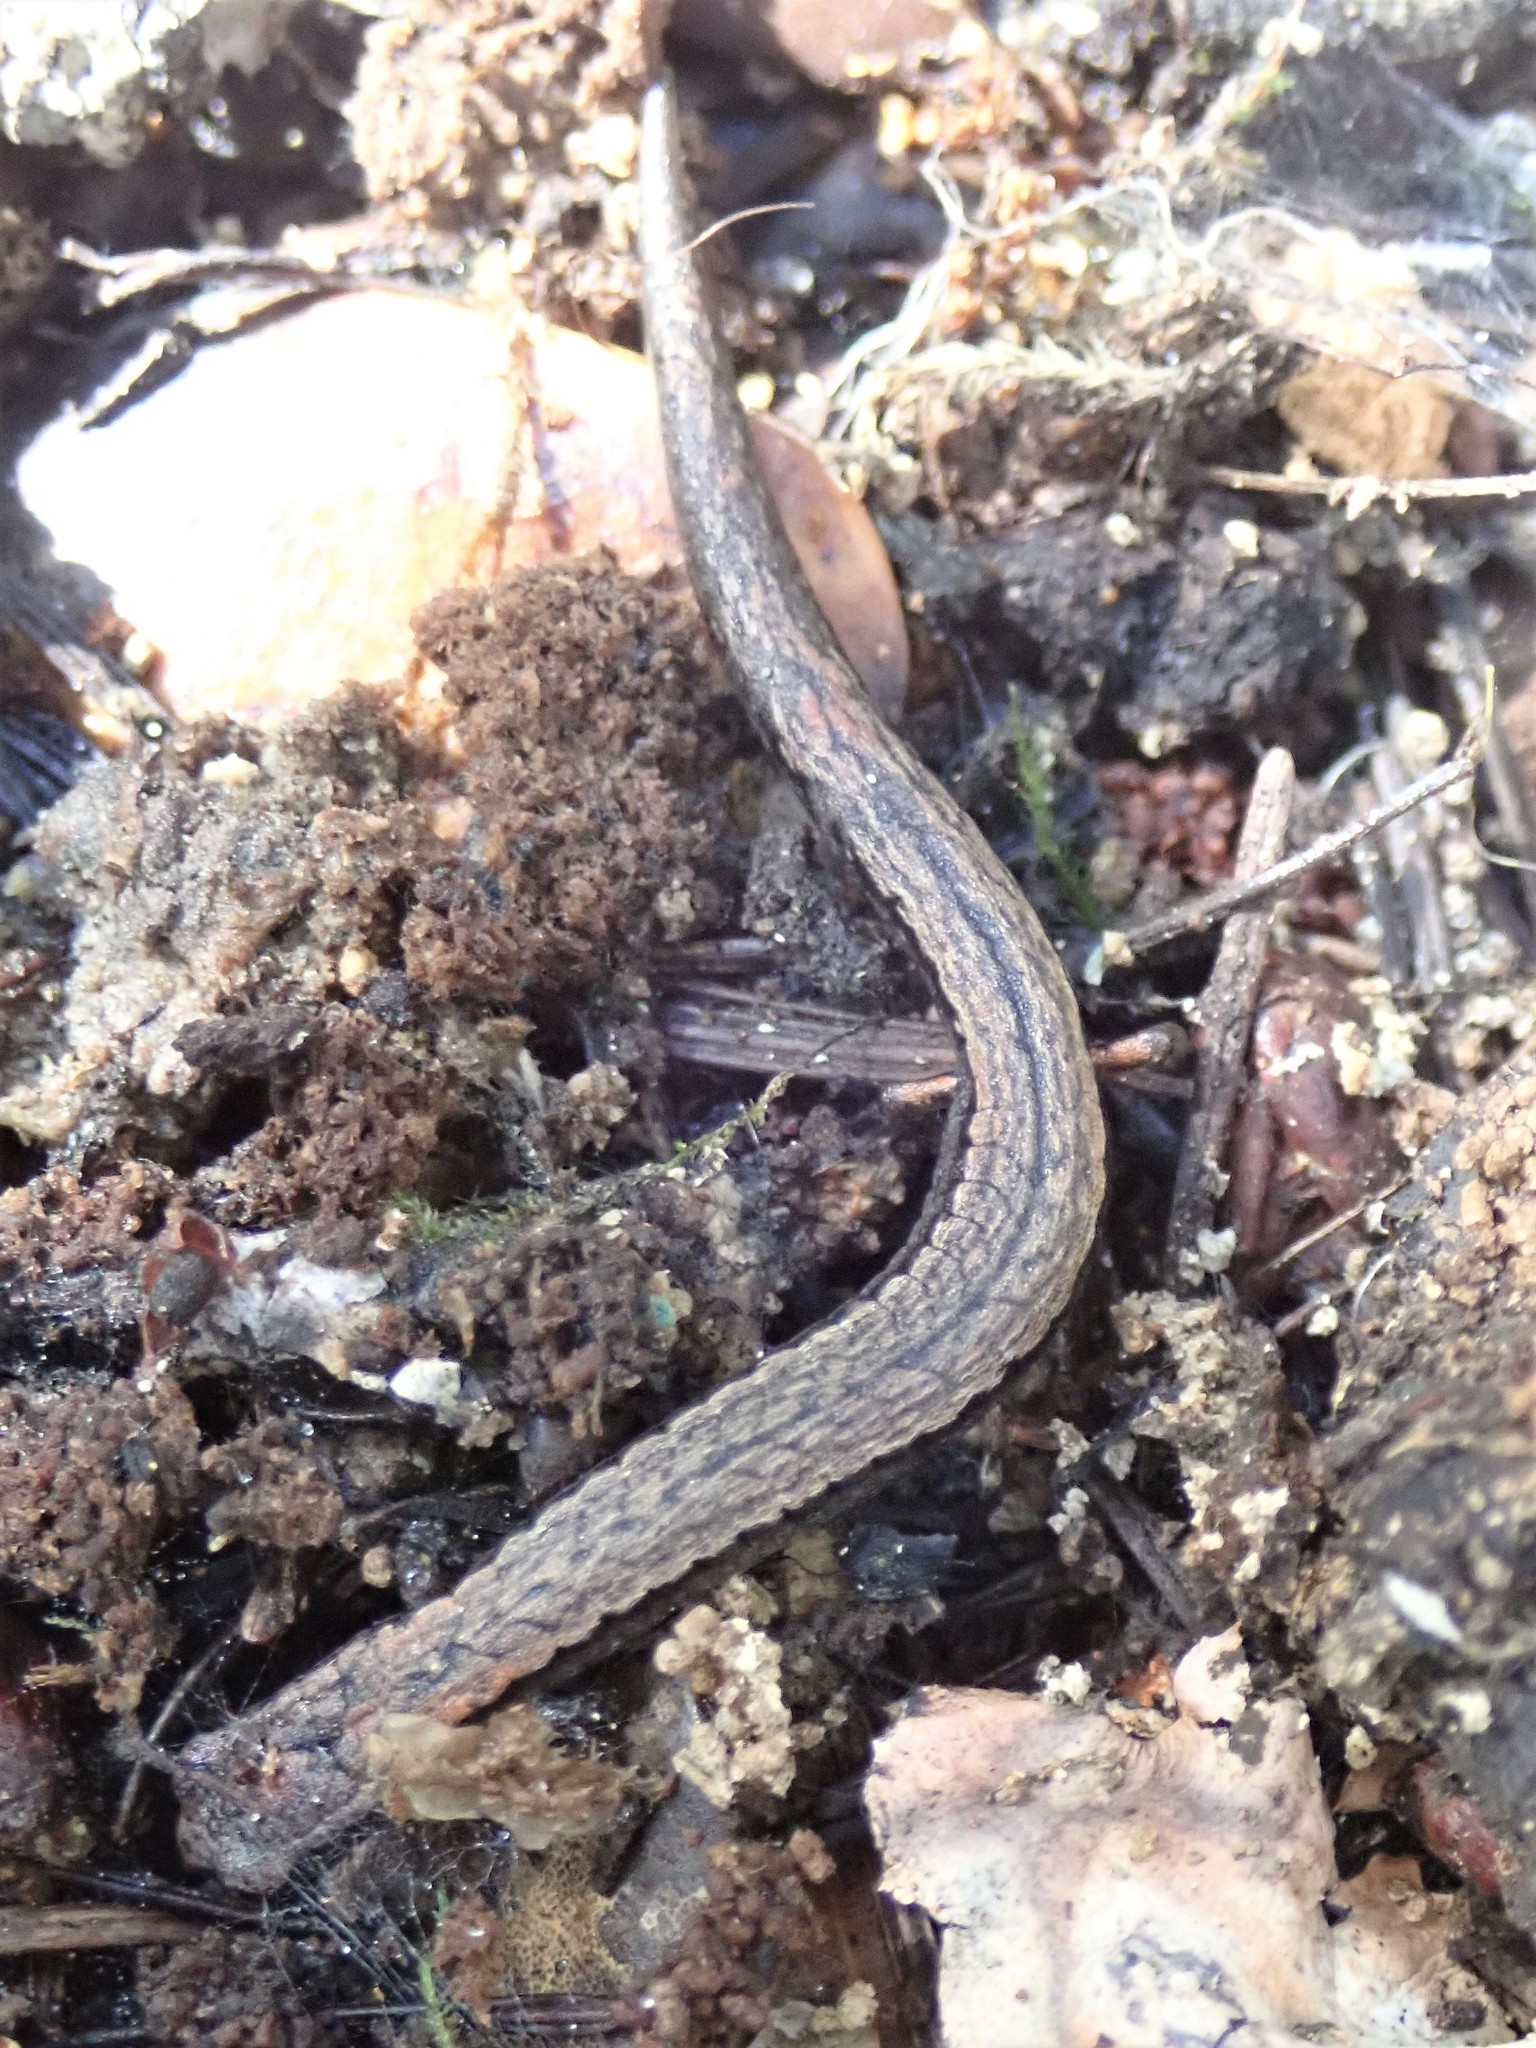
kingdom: Animalia
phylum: Chordata
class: Amphibia
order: Caudata
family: Plethodontidae
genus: Batrachoseps
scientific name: Batrachoseps attenuatus
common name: California slender salamander
